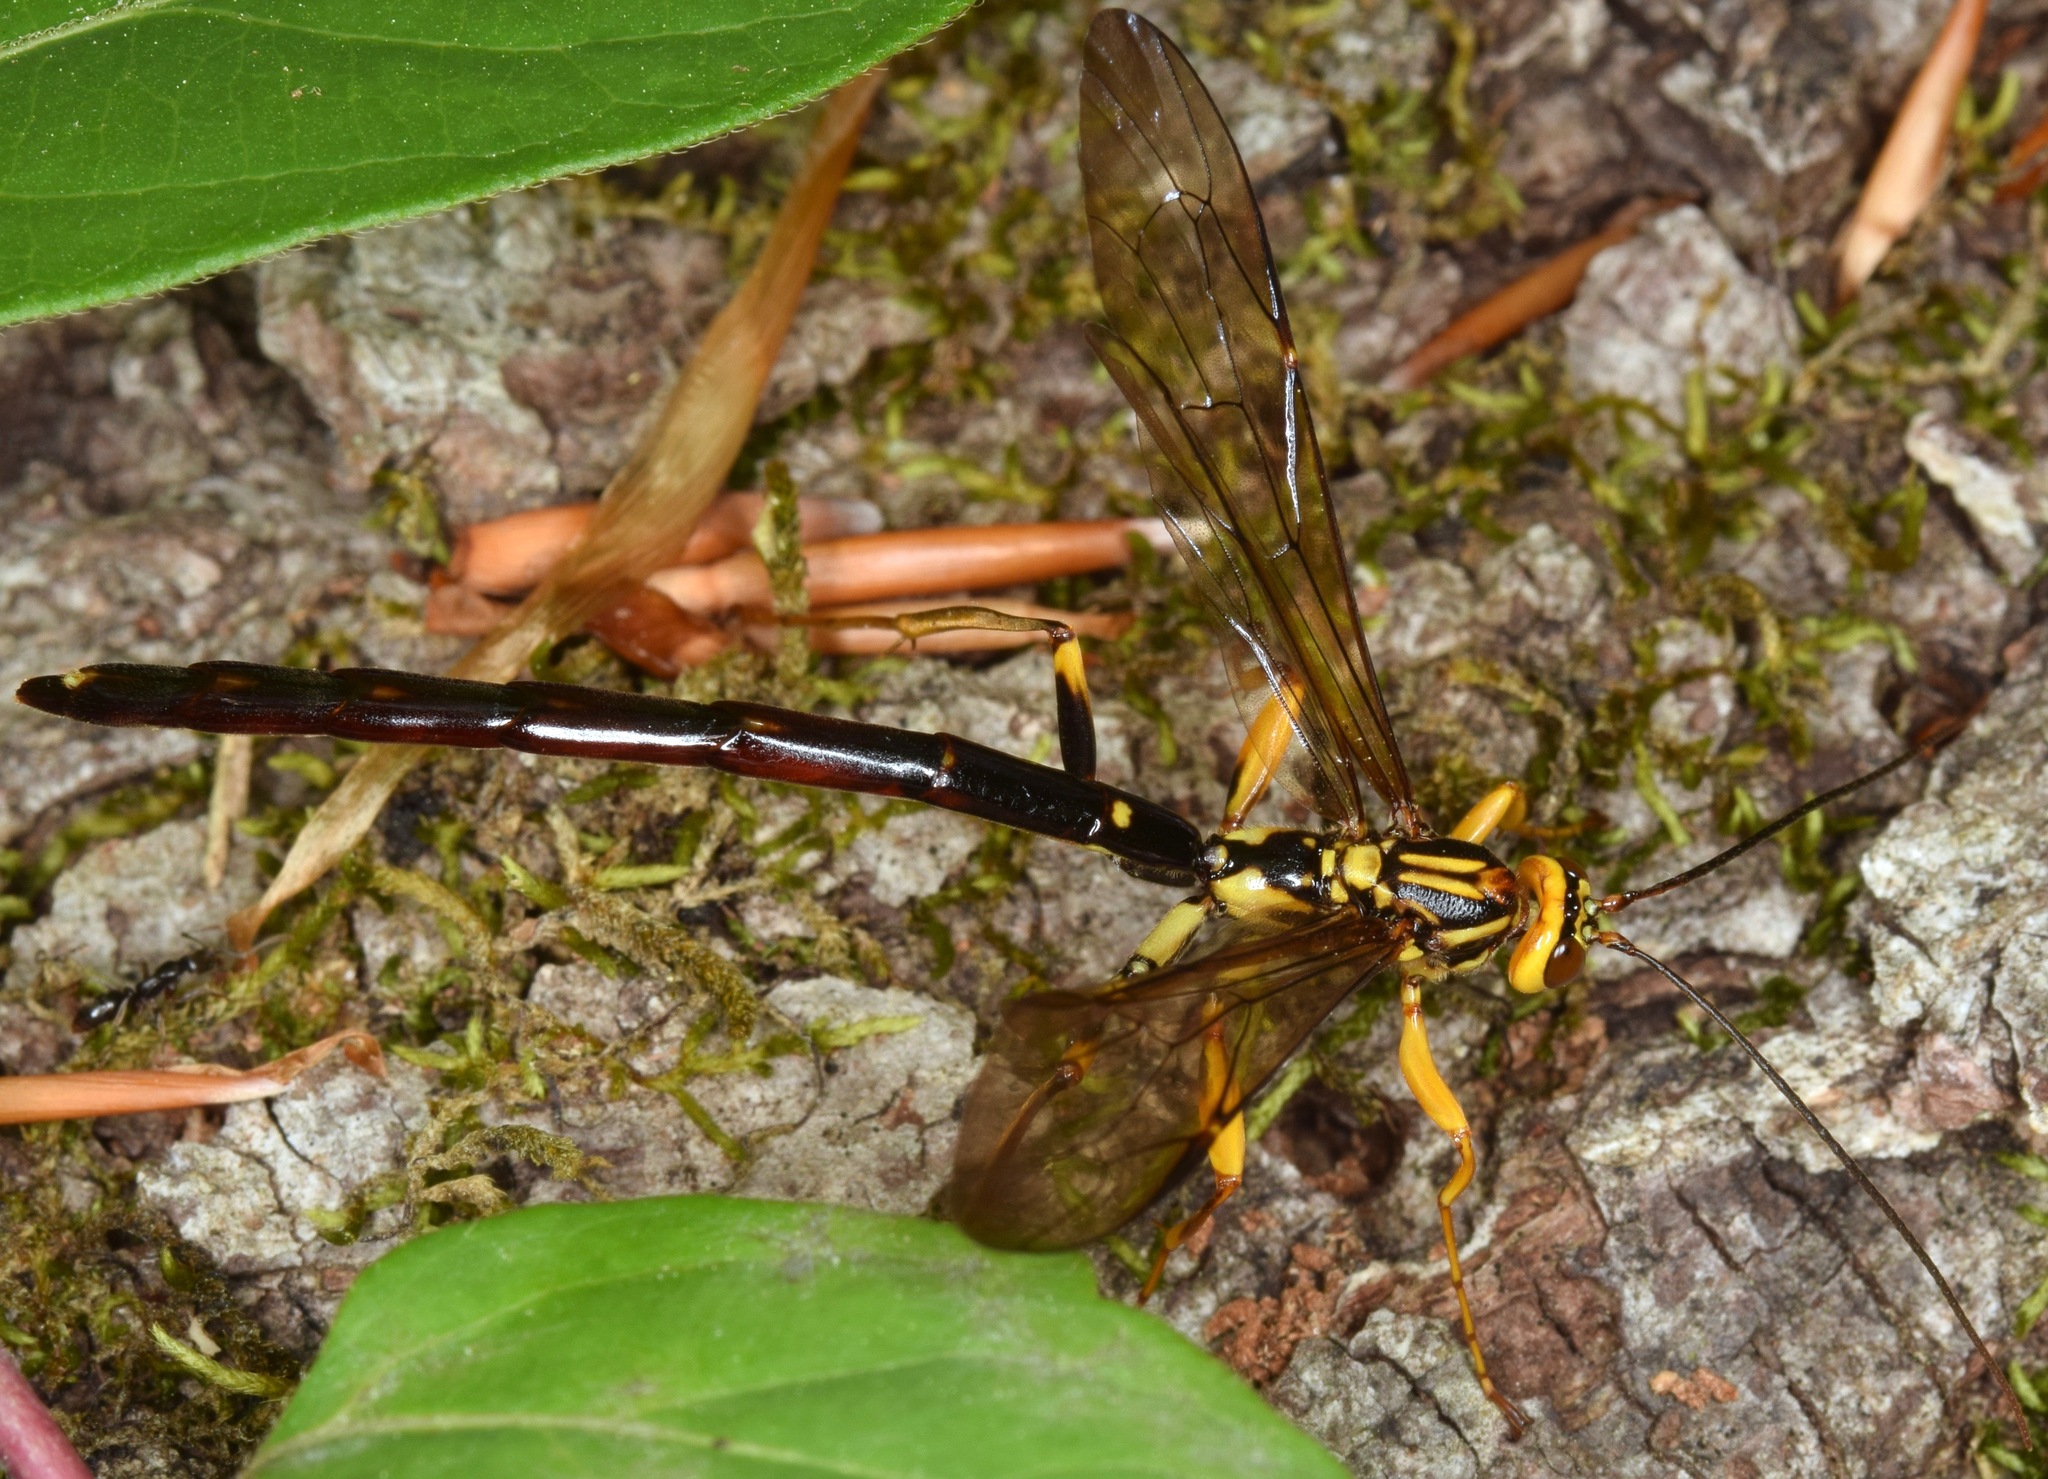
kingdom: Animalia
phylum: Arthropoda
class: Insecta
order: Hymenoptera
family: Ichneumonidae
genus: Megarhyssa
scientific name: Megarhyssa atrata
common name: Black giant ichneumonid wasp
